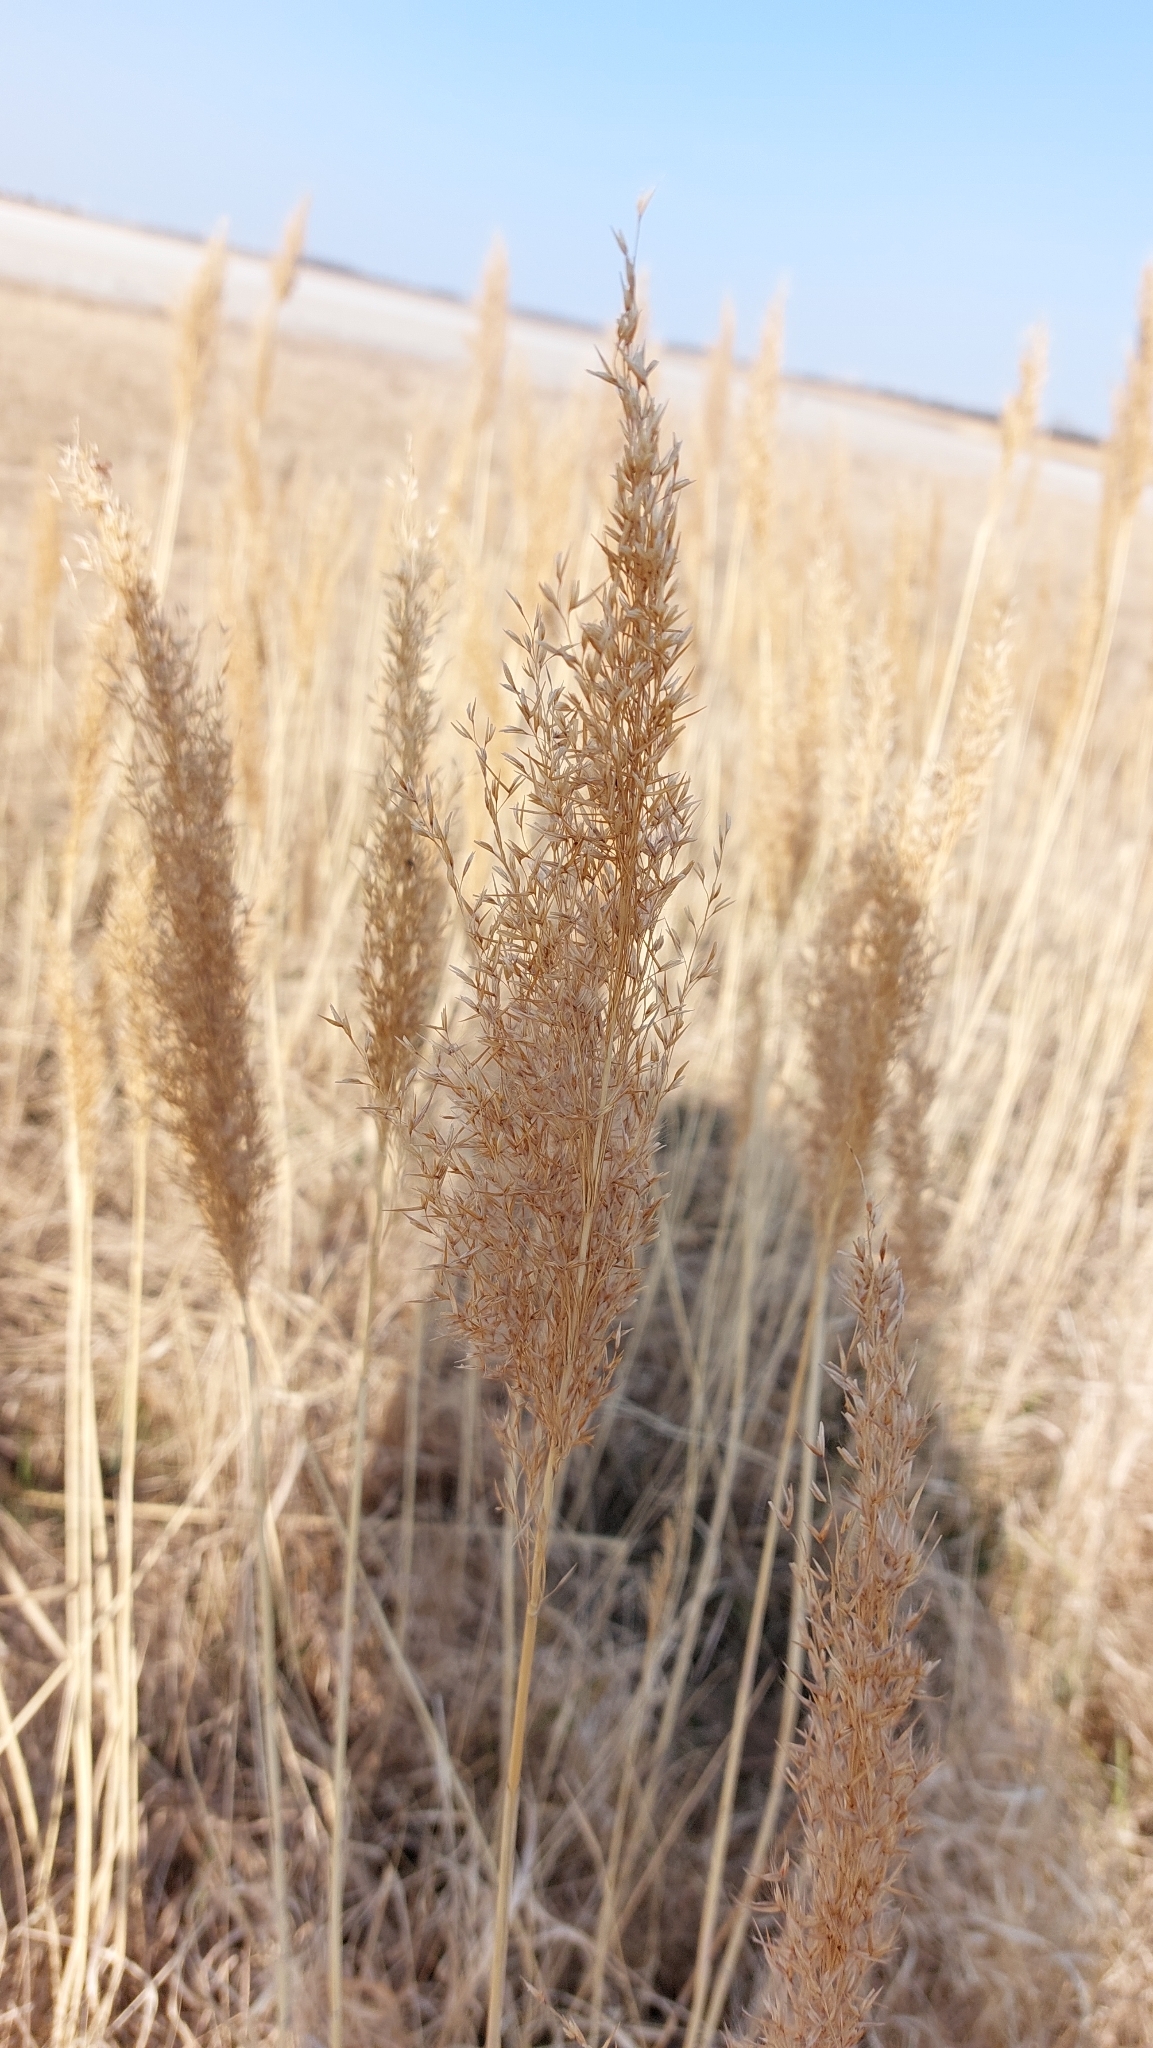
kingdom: Plantae
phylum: Tracheophyta
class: Liliopsida
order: Poales
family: Poaceae
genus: Phragmites
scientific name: Phragmites australis
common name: Common reed
